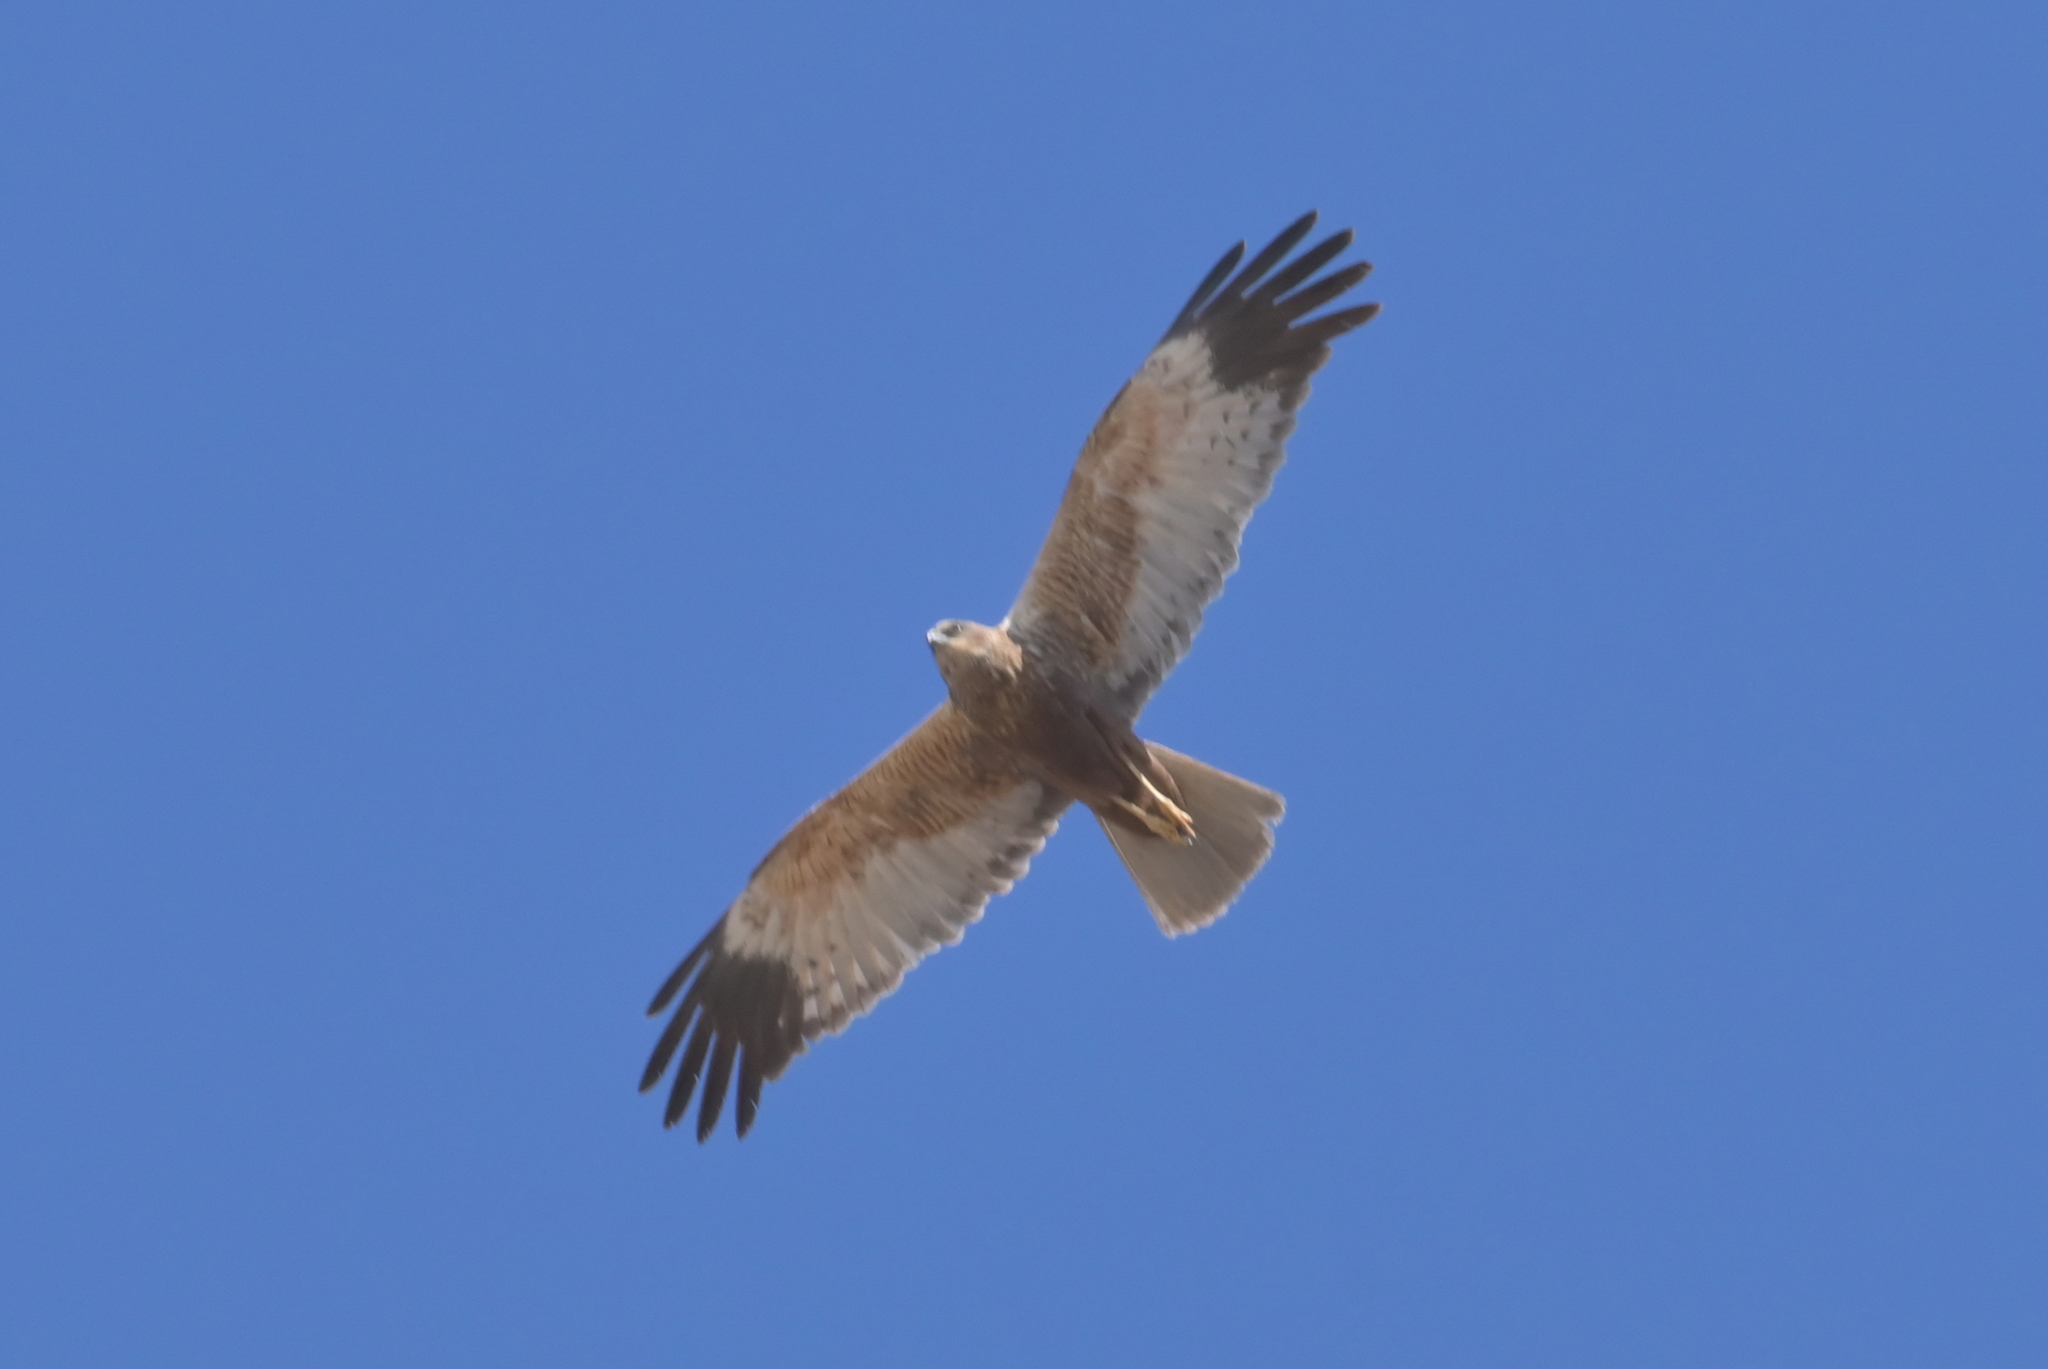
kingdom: Animalia
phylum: Chordata
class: Aves
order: Accipitriformes
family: Accipitridae
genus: Circus
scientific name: Circus aeruginosus
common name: Western marsh harrier
